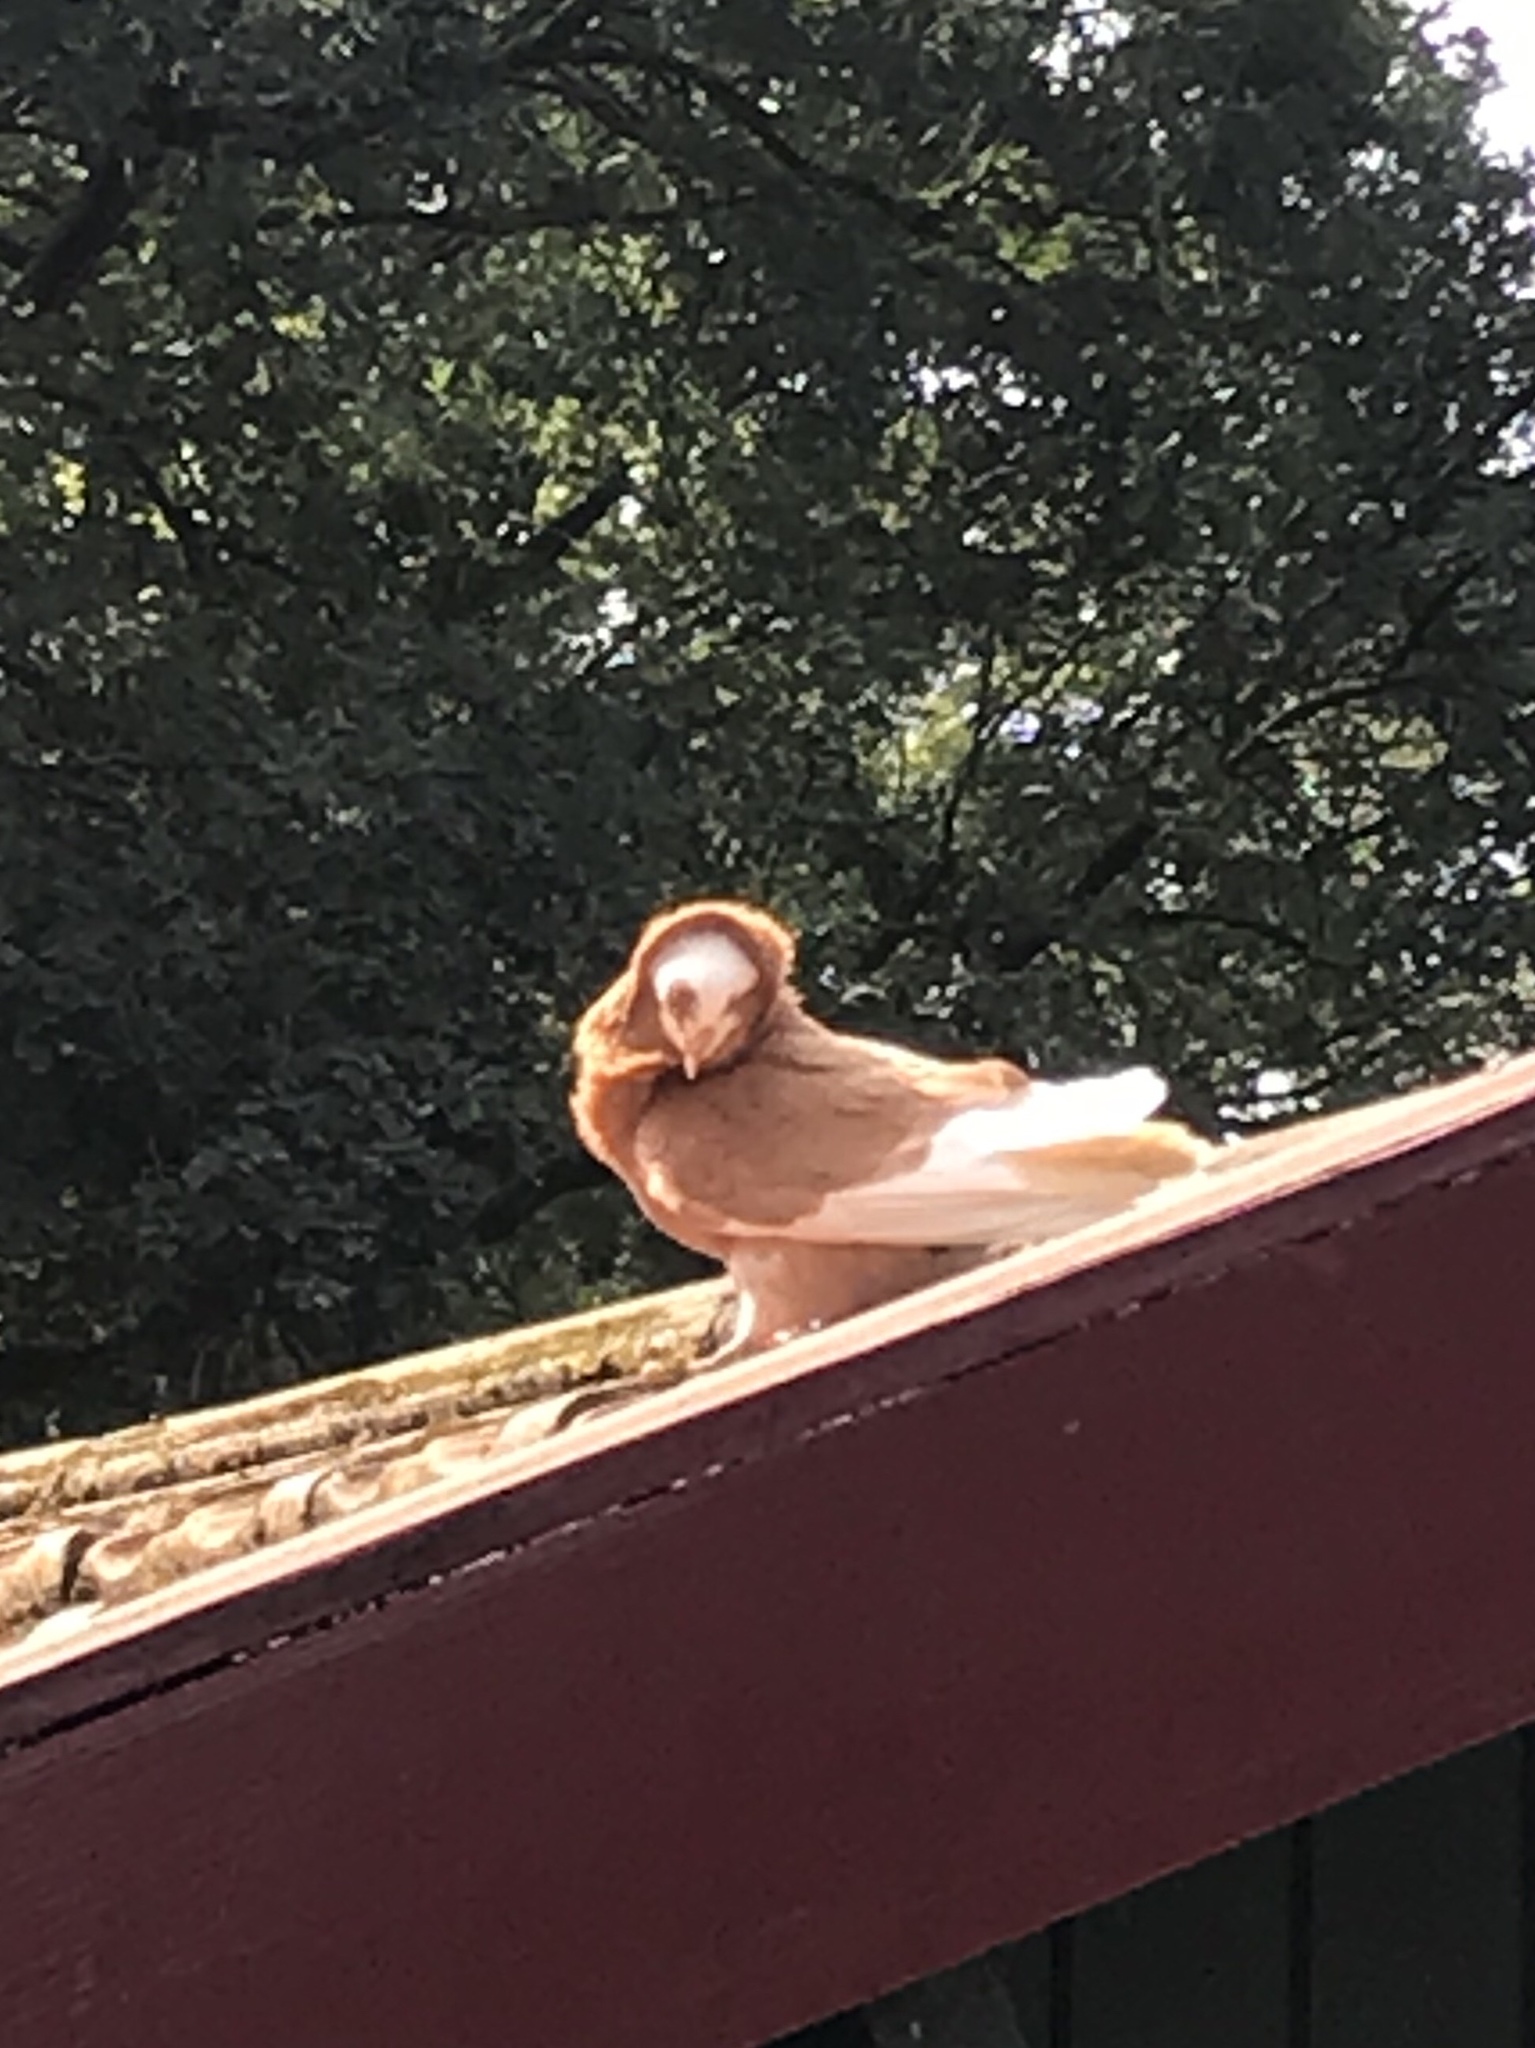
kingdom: Animalia
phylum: Chordata
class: Aves
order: Columbiformes
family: Columbidae
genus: Columba
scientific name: Columba livia
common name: Rock pigeon
